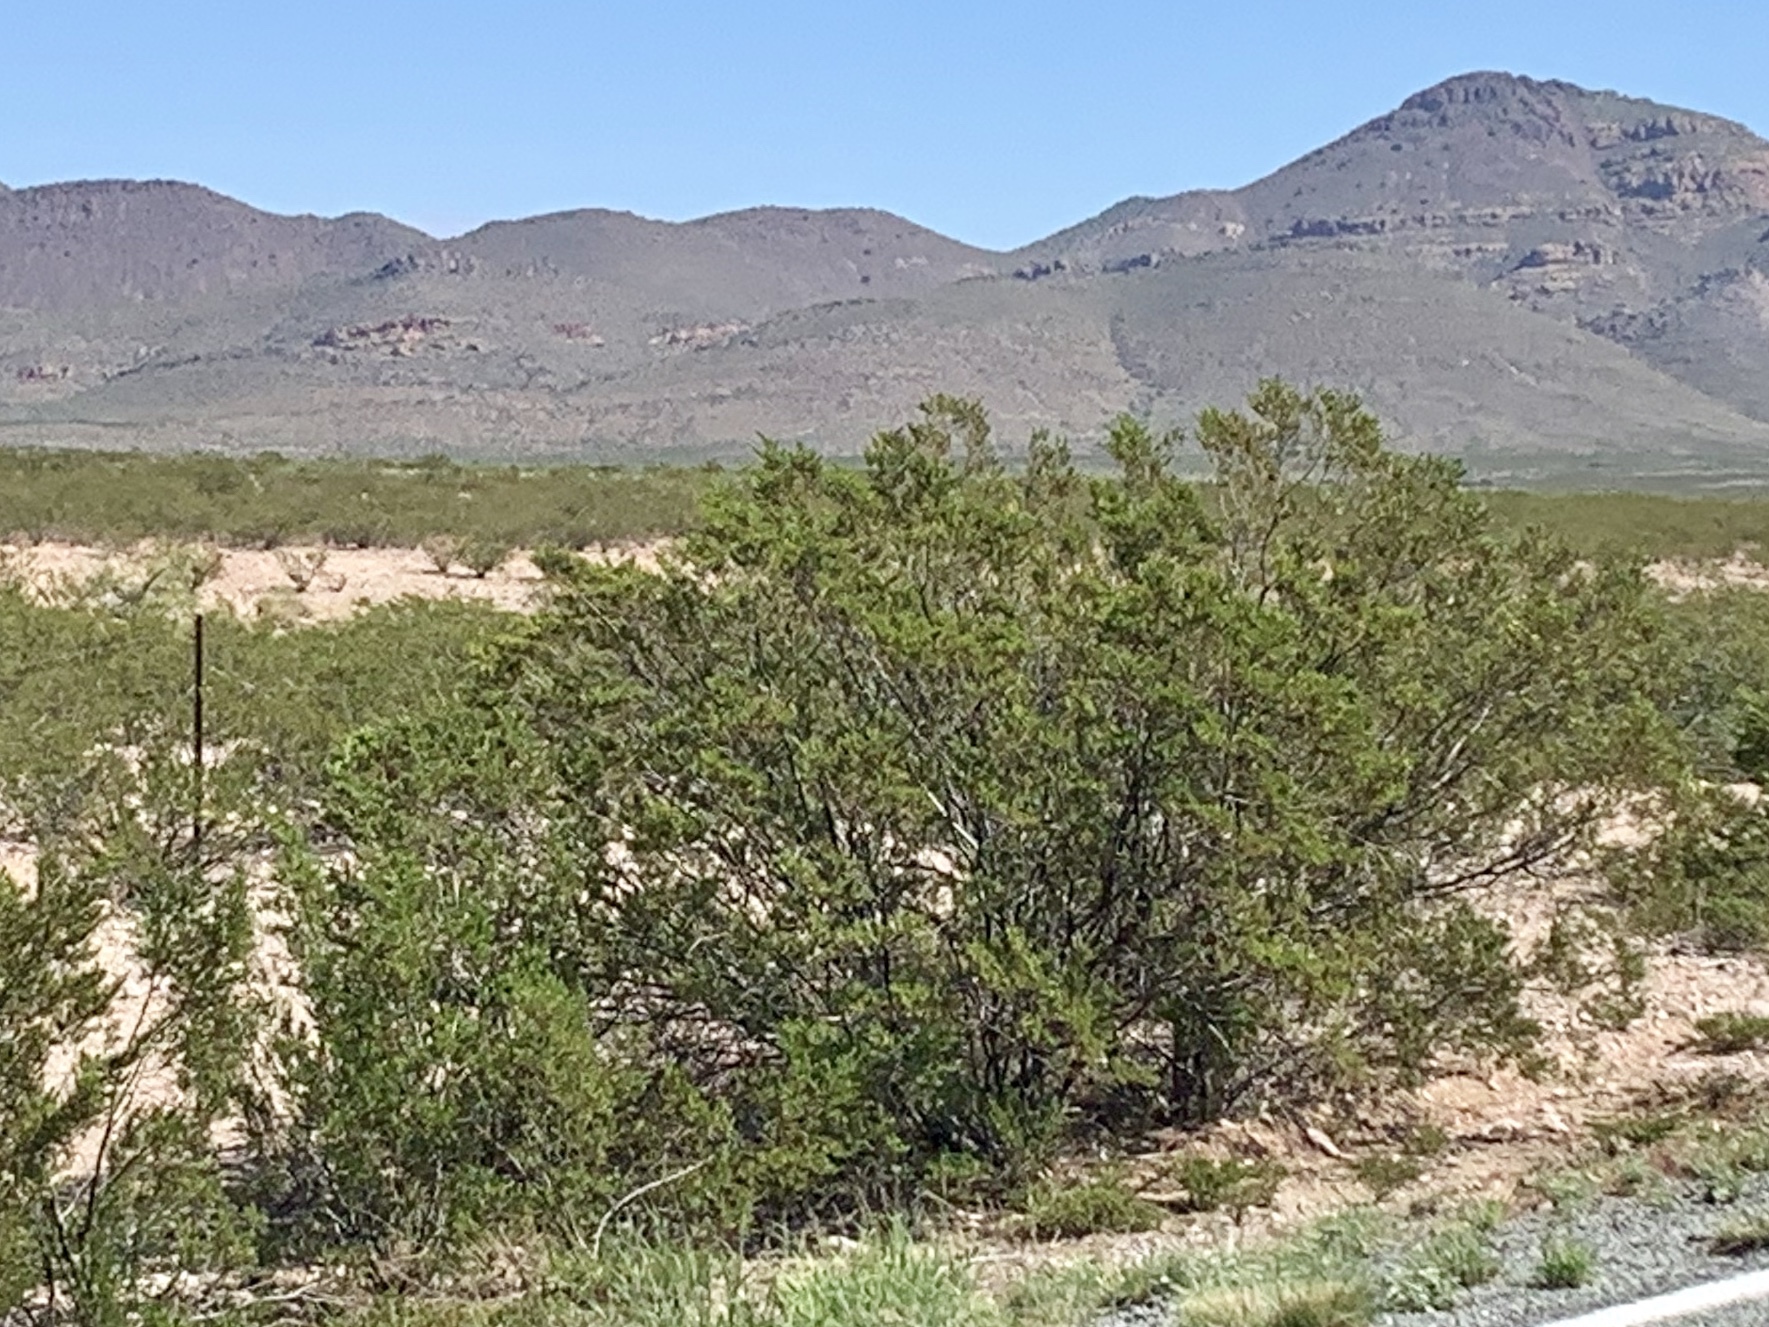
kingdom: Plantae
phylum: Tracheophyta
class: Magnoliopsida
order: Zygophyllales
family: Zygophyllaceae
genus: Larrea
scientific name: Larrea tridentata
